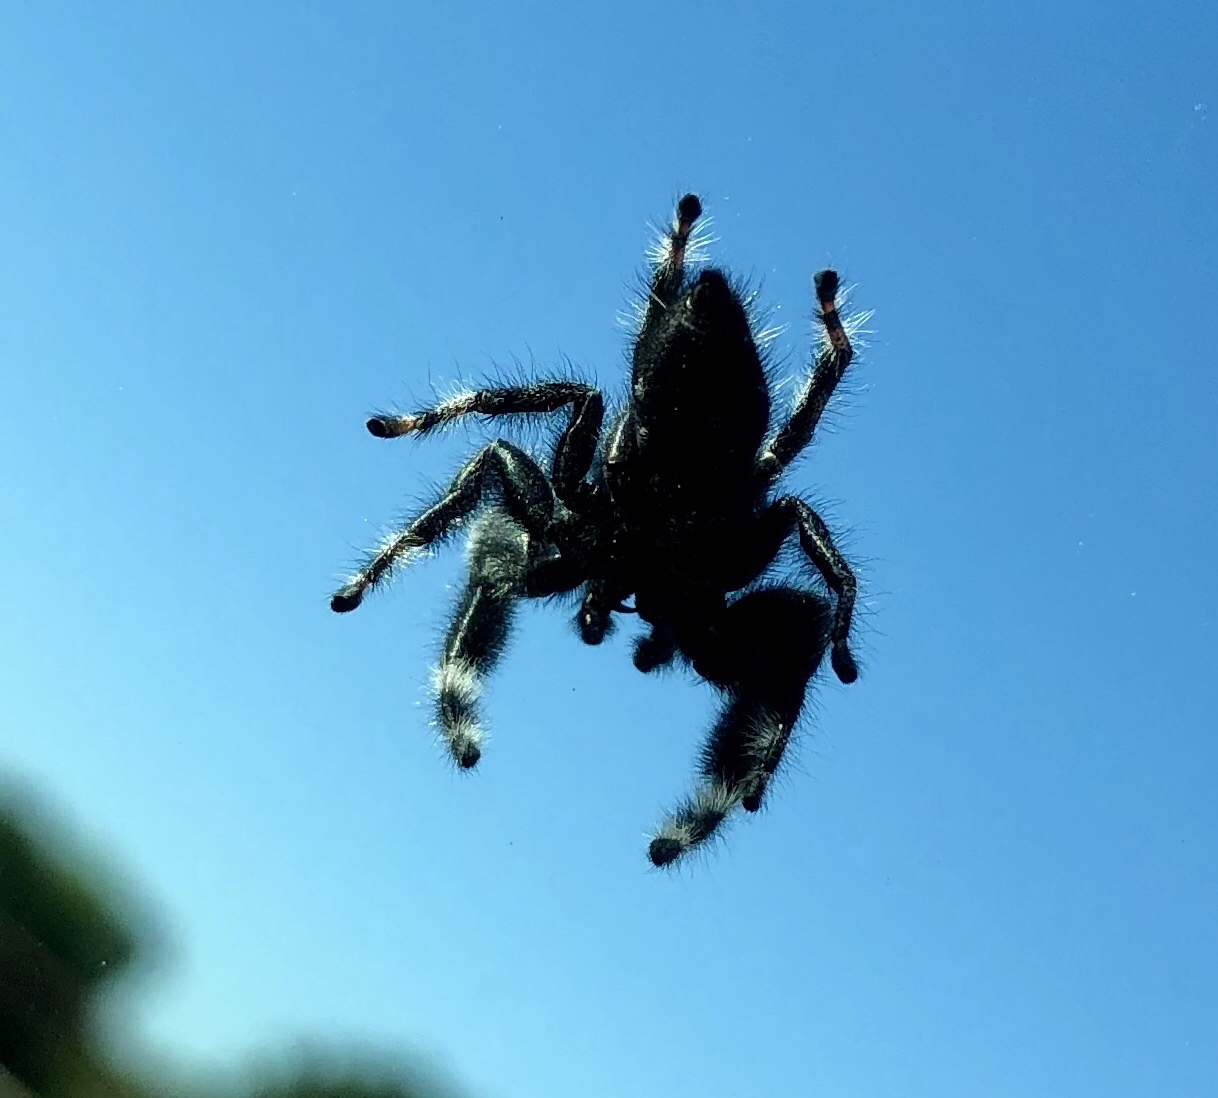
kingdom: Animalia
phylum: Arthropoda
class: Arachnida
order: Araneae
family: Salticidae
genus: Phidippus
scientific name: Phidippus audax
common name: Bold jumper
